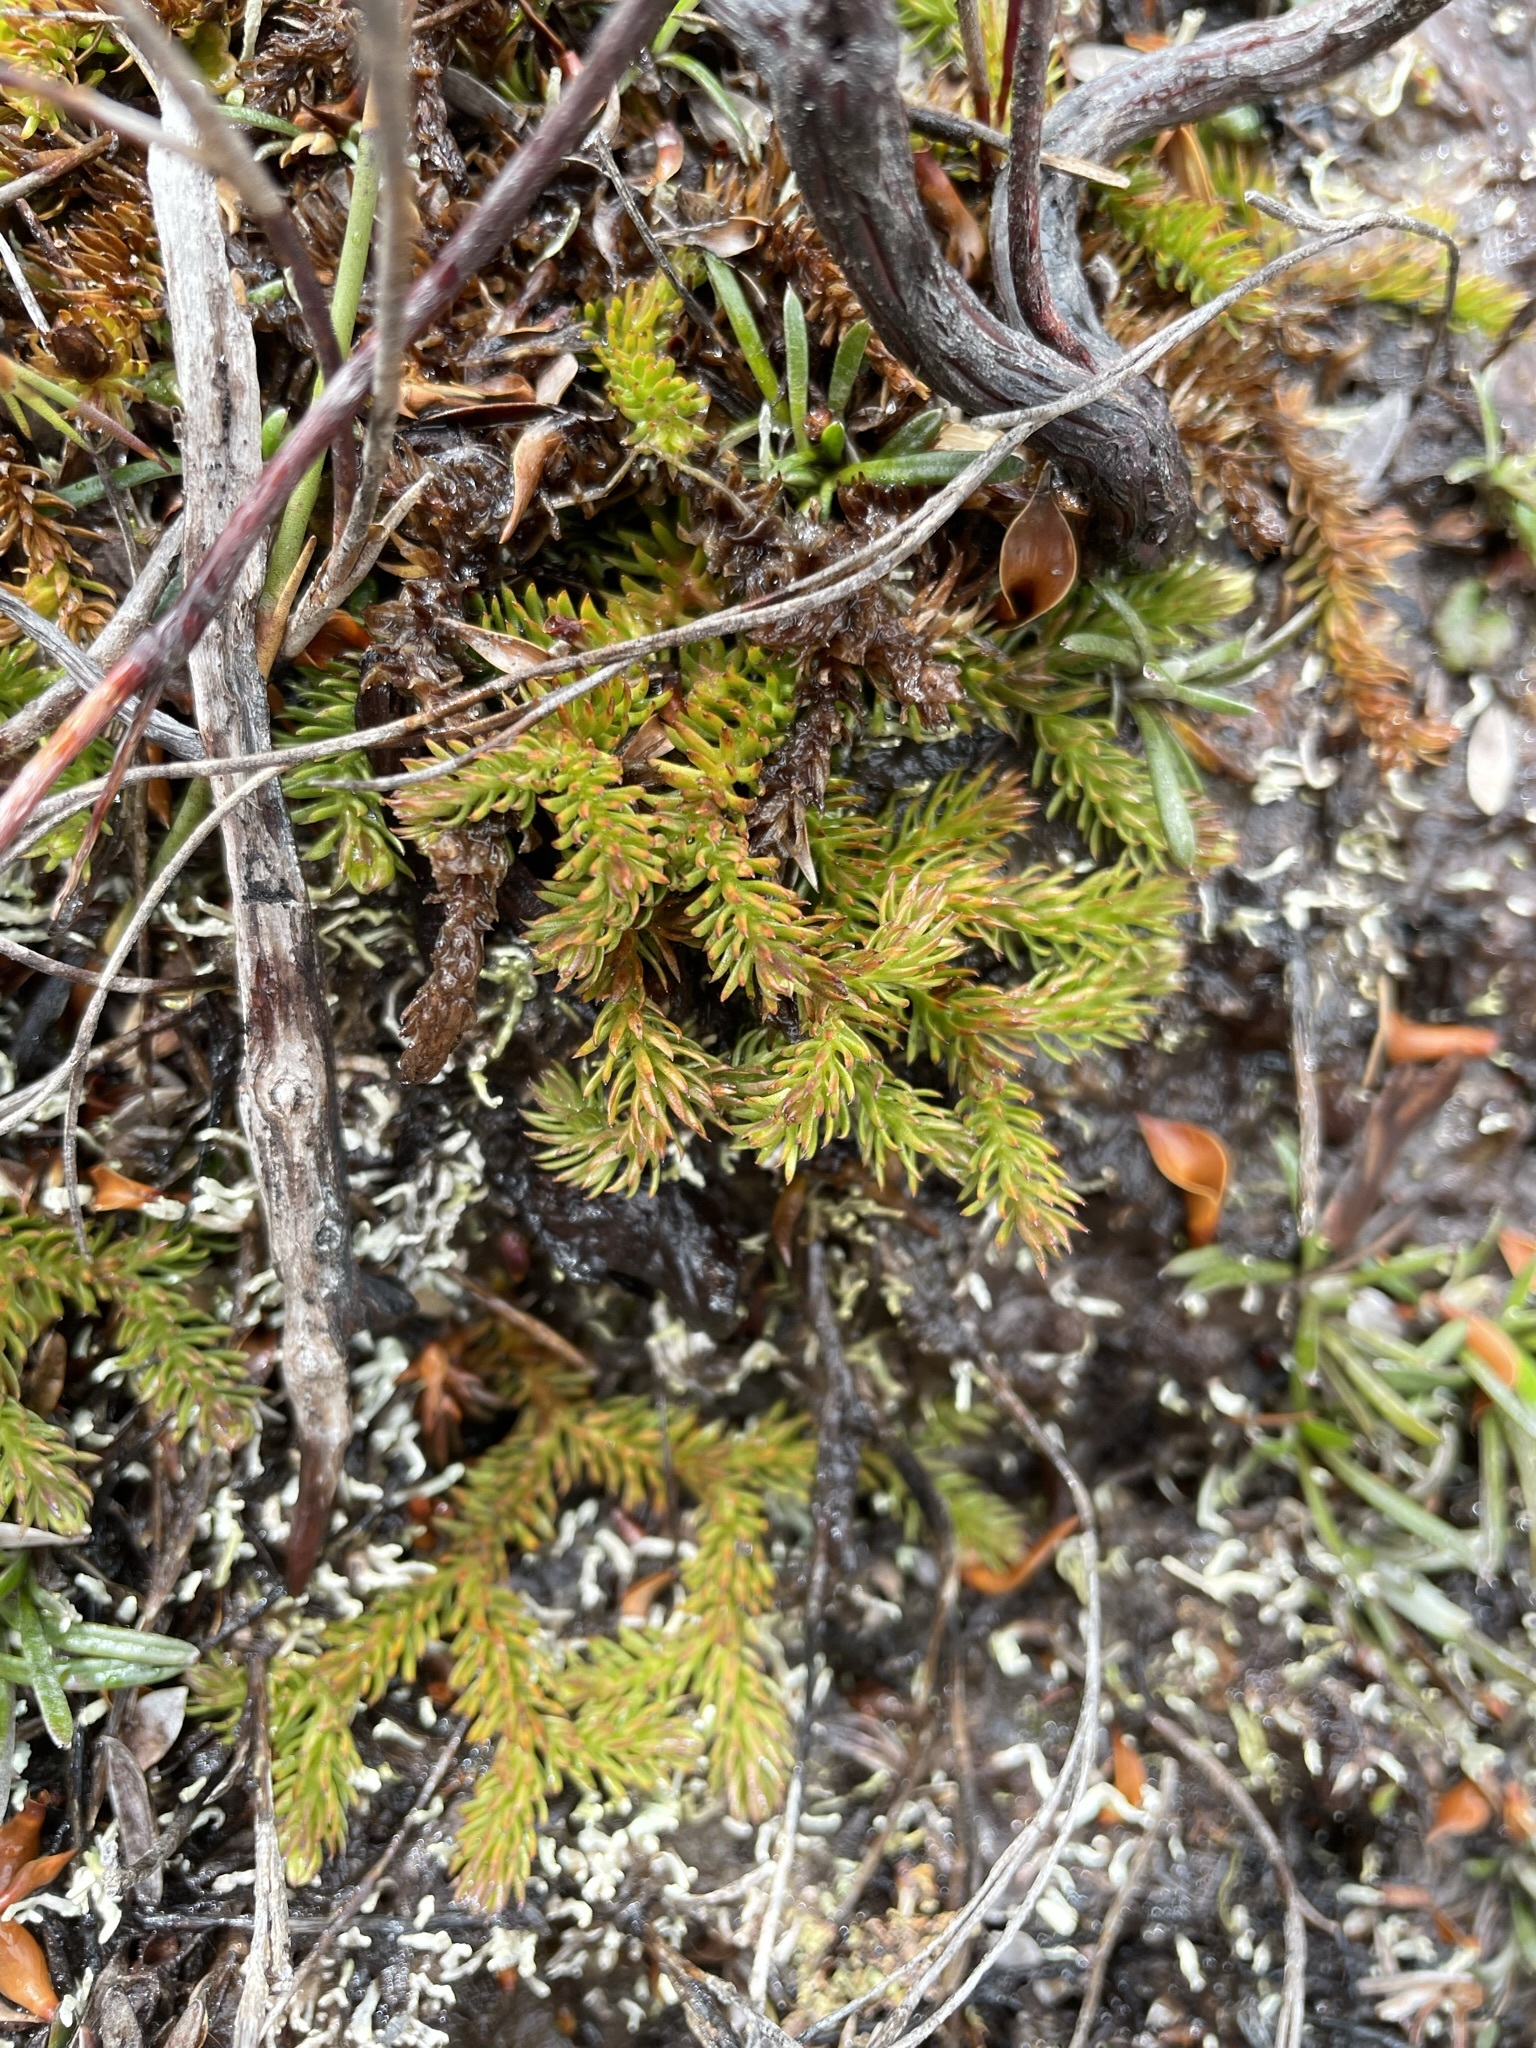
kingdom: Plantae
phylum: Tracheophyta
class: Lycopodiopsida
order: Lycopodiales
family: Lycopodiaceae
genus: Austrolycopodium
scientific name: Austrolycopodium fastigiatum
